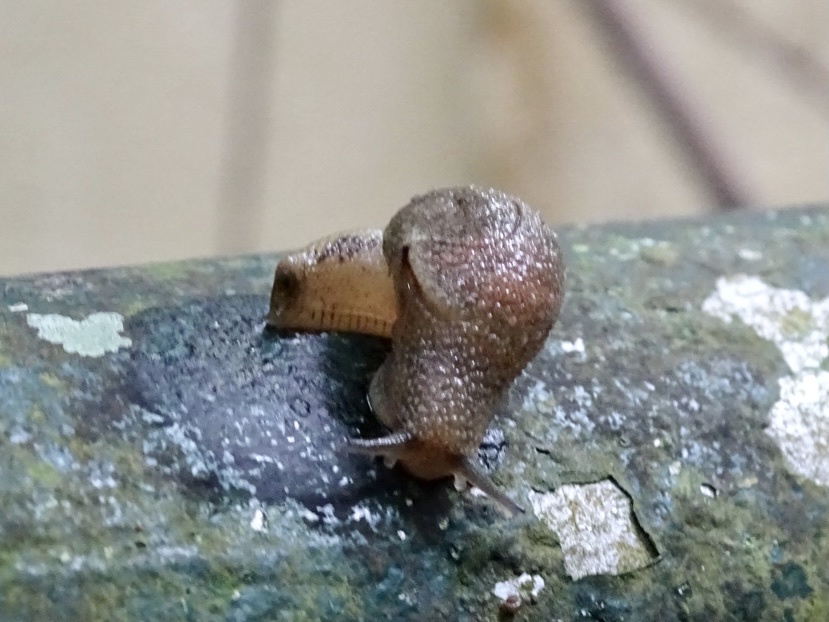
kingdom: Animalia
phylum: Mollusca
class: Gastropoda
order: Stylommatophora
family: Ariophantidae
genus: Megaustenia
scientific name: Megaustenia imperator
